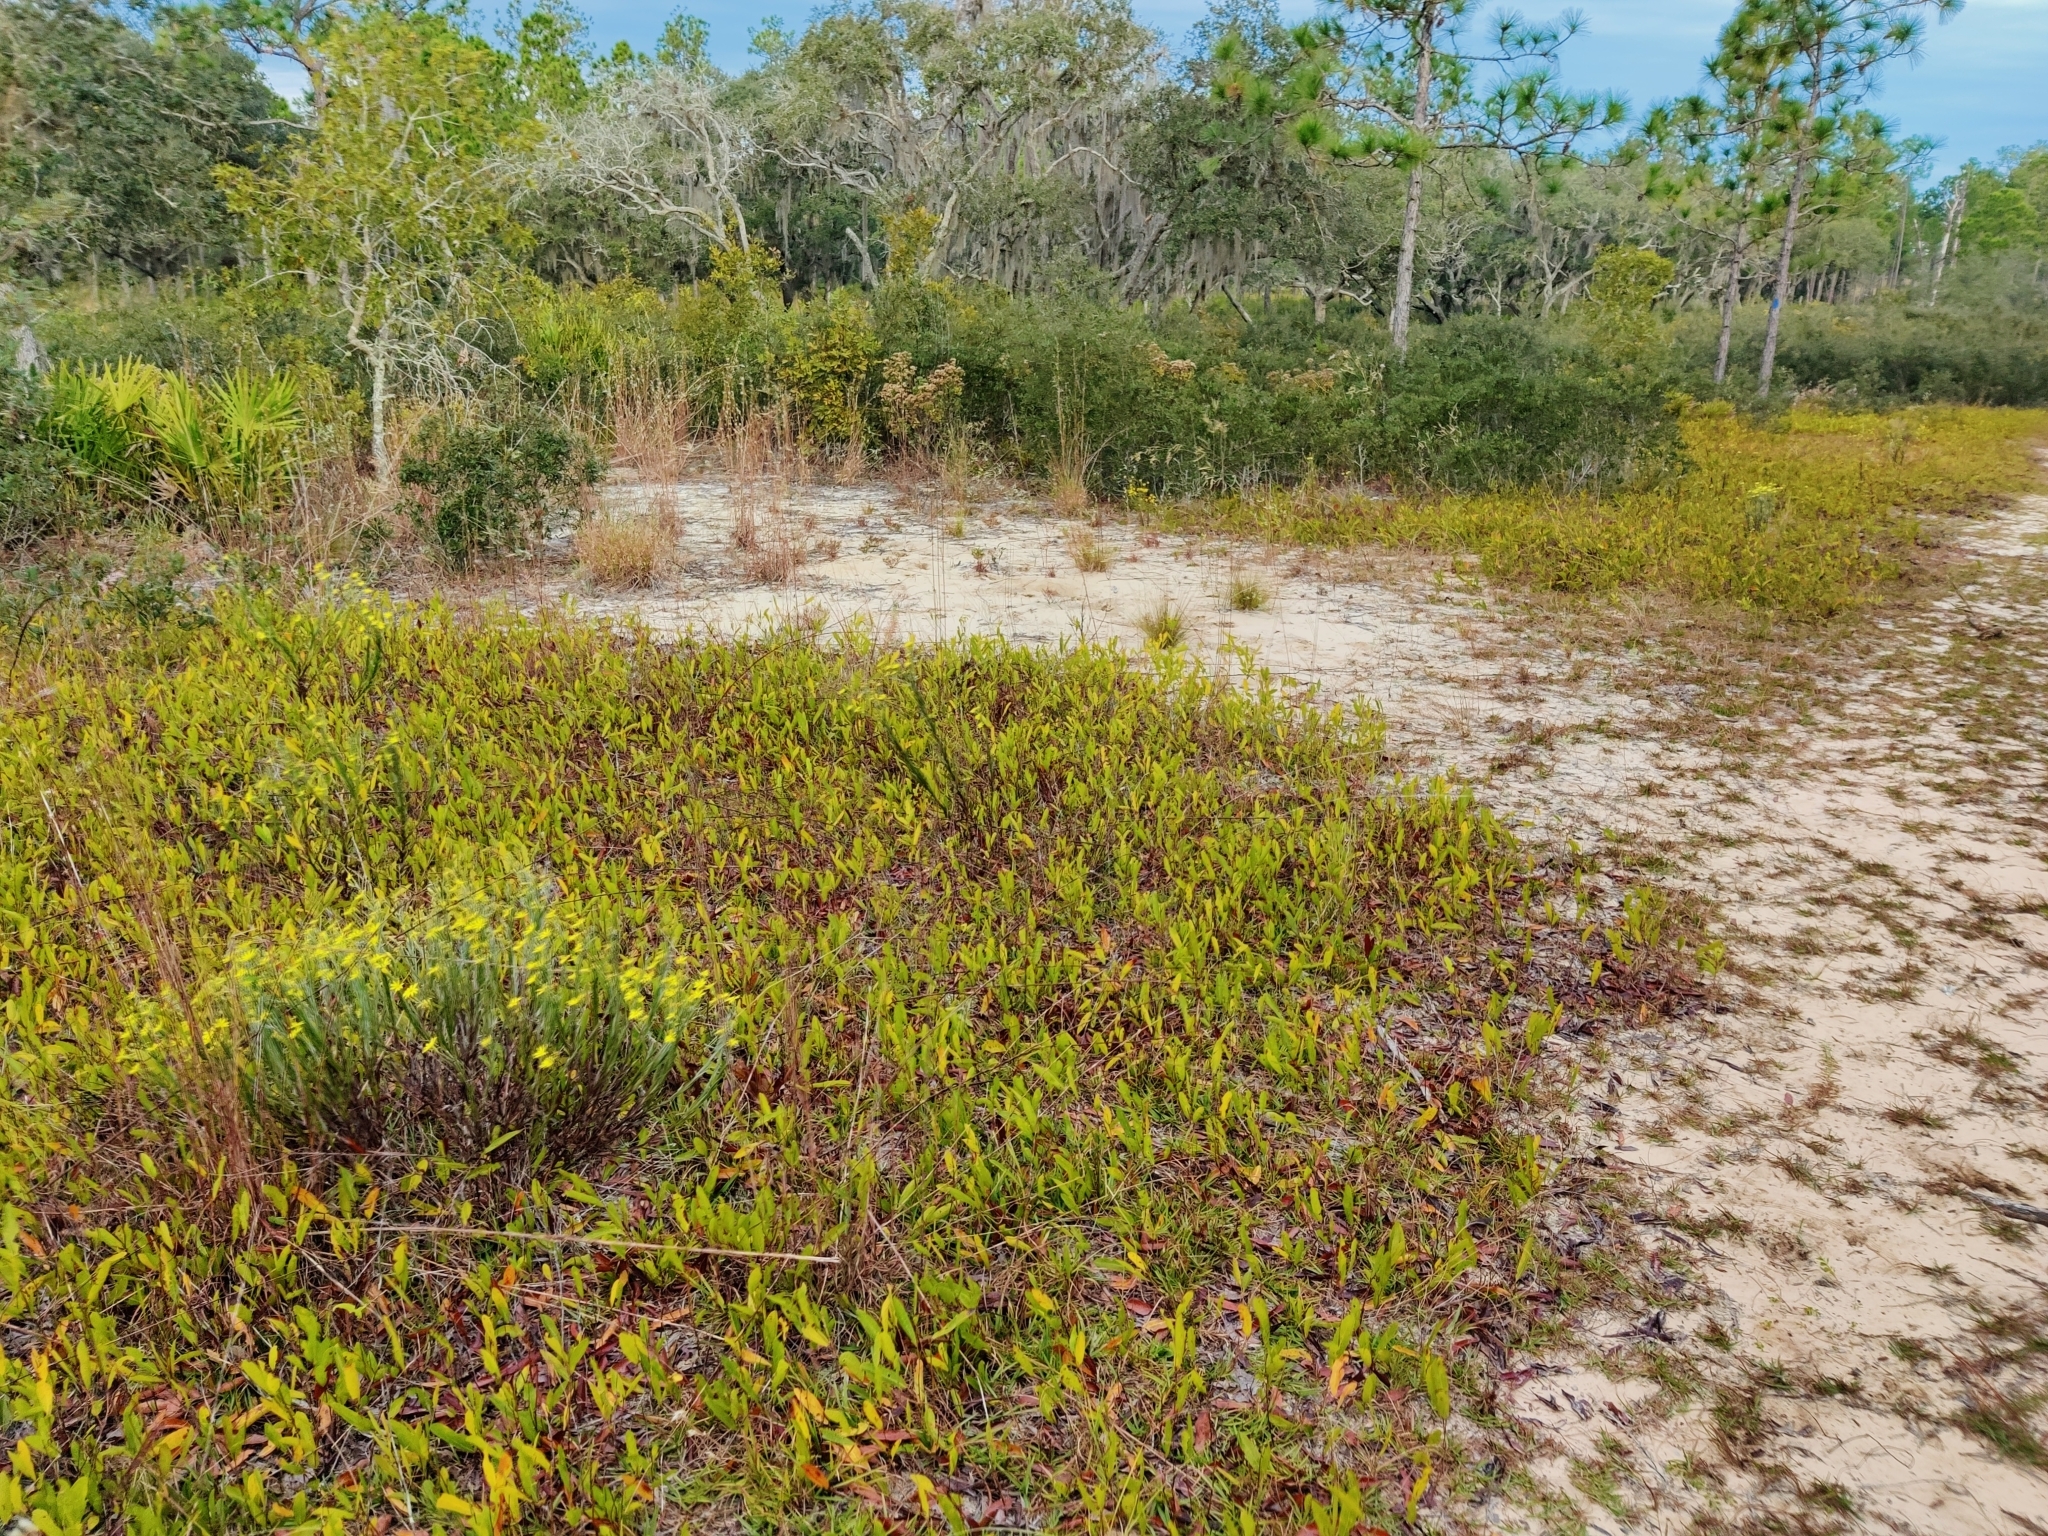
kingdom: Plantae
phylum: Tracheophyta
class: Magnoliopsida
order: Malpighiales
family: Chrysobalanaceae
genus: Geobalanus
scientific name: Geobalanus oblongifolius
